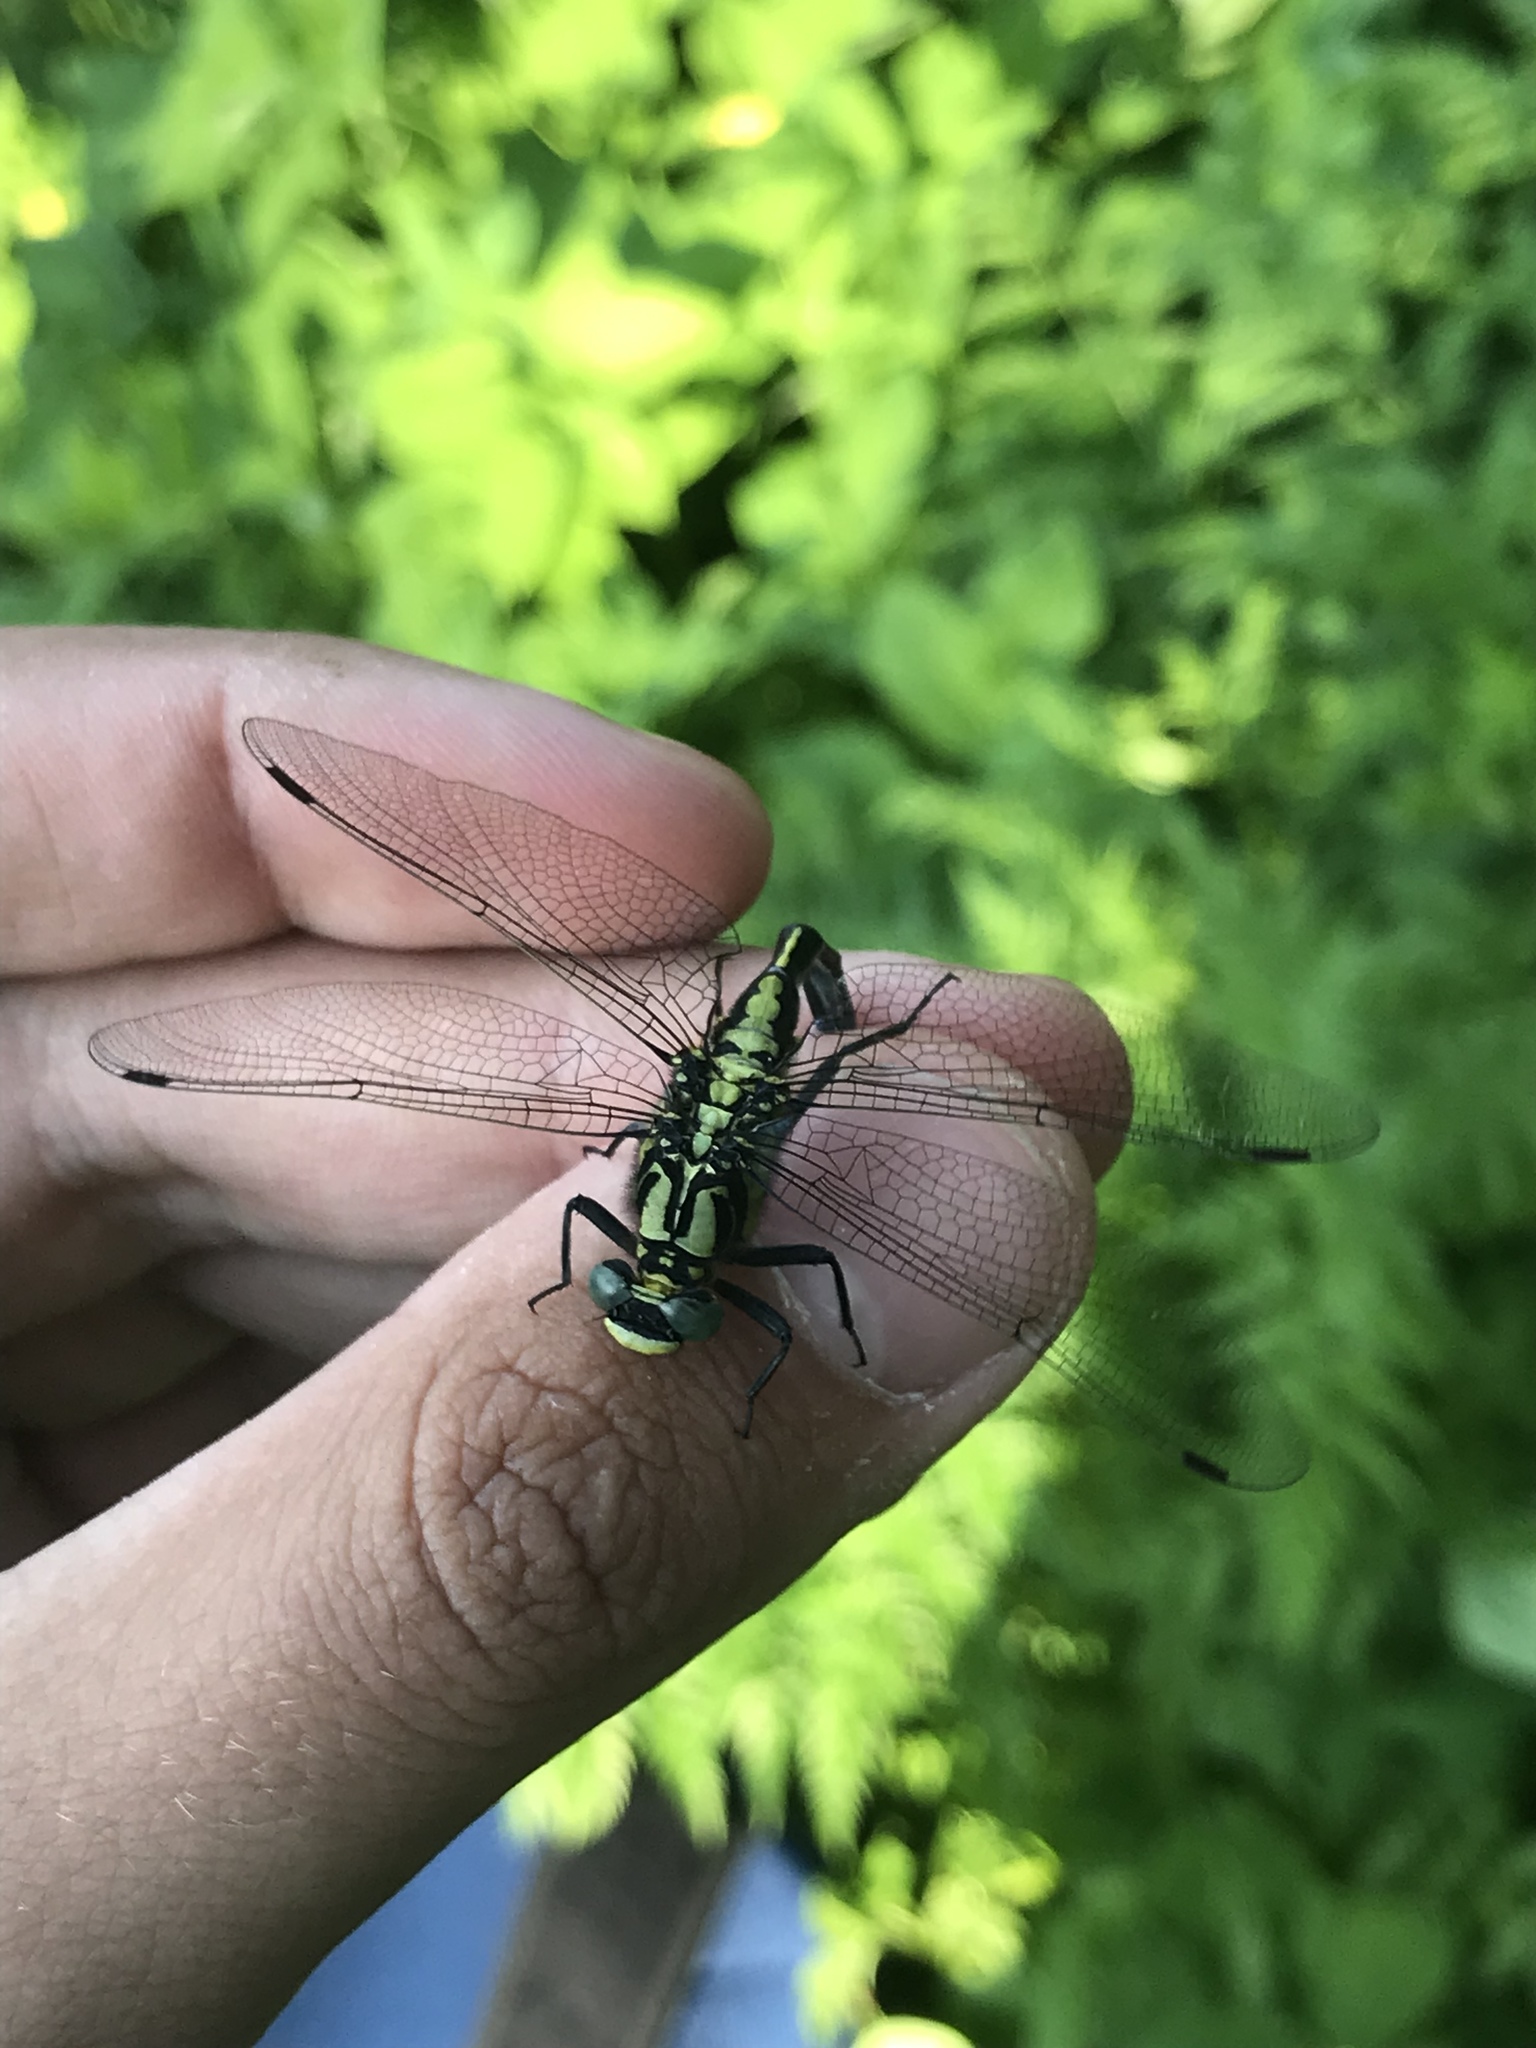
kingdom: Animalia
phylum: Arthropoda
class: Insecta
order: Odonata
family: Gomphidae
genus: Gomphus
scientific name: Gomphus vulgatissimus
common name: Club-tailed dragonfly
